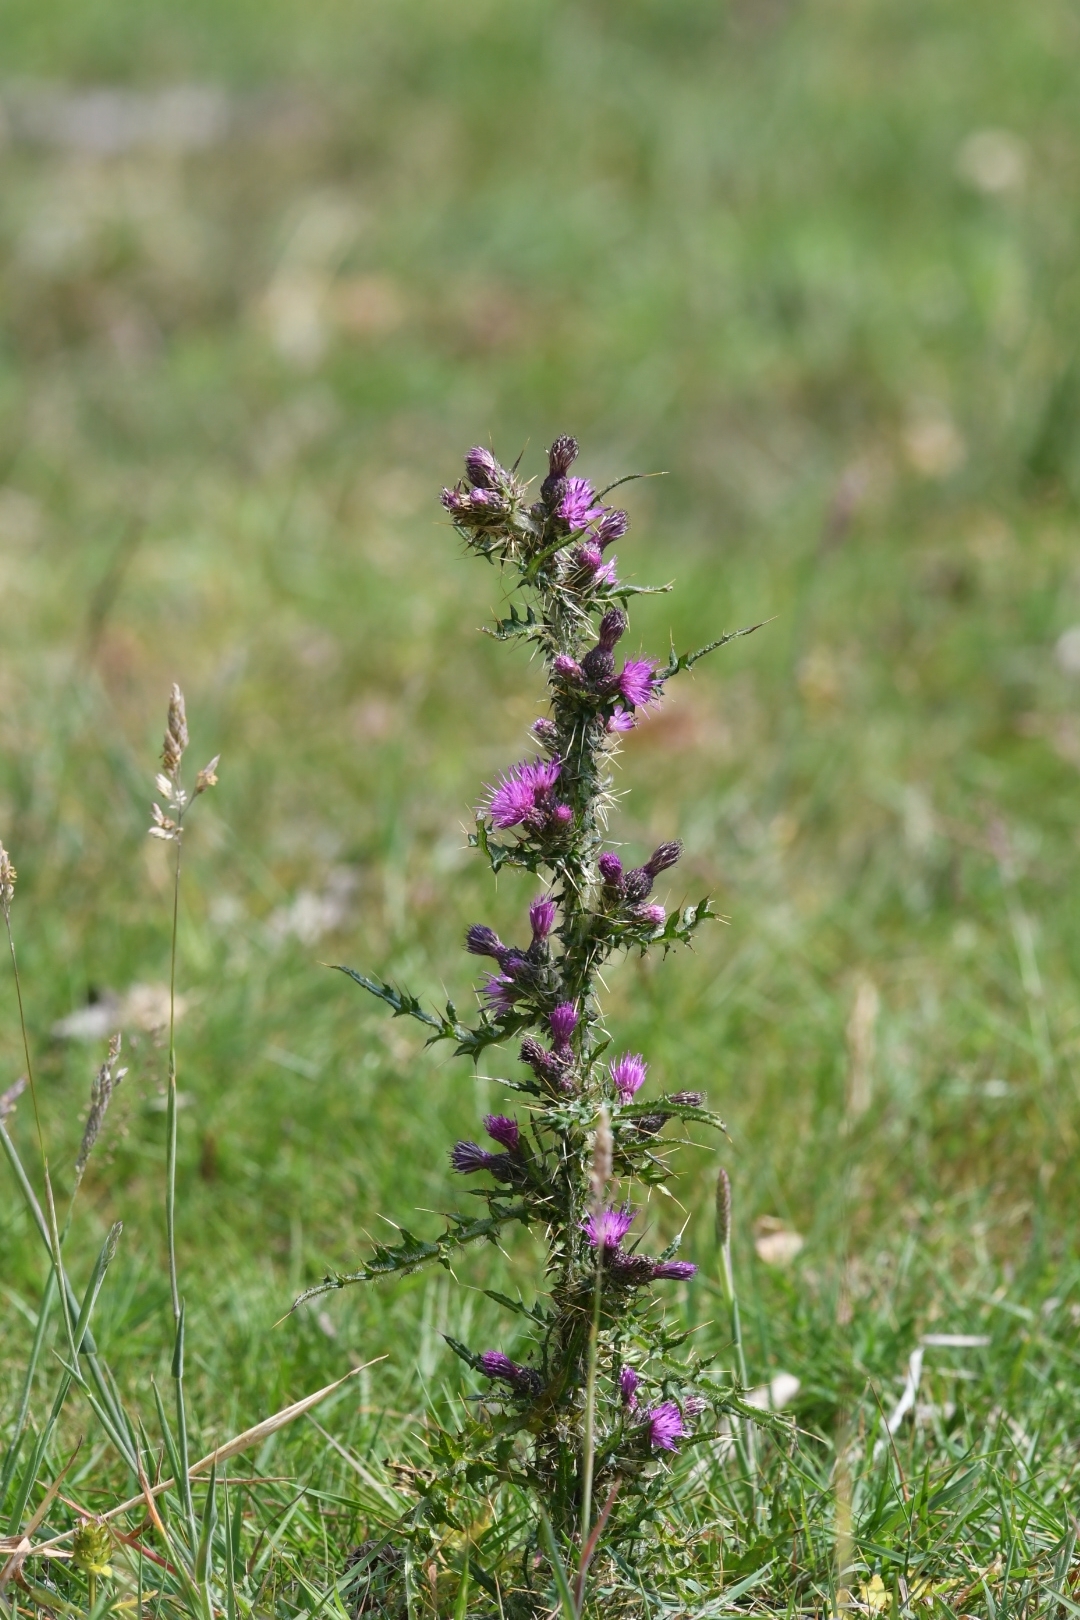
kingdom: Plantae
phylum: Tracheophyta
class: Magnoliopsida
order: Asterales
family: Asteraceae
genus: Cirsium
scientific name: Cirsium palustre
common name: Marsh thistle
